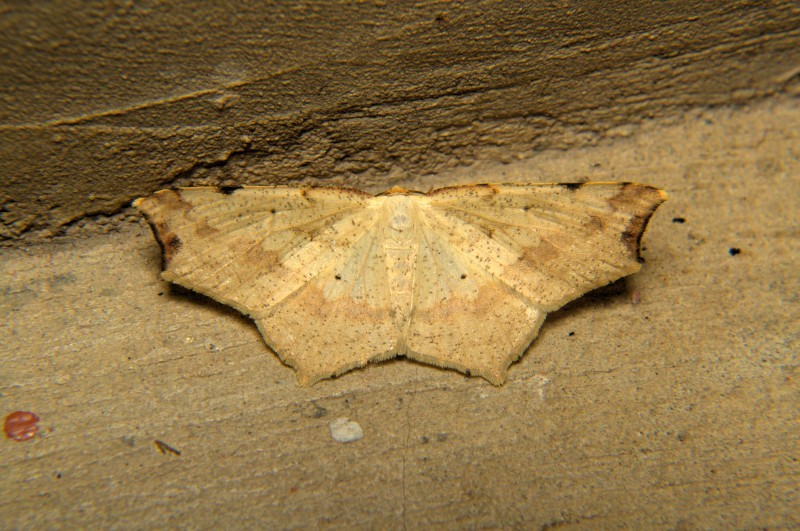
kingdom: Animalia
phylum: Arthropoda
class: Insecta
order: Lepidoptera
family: Geometridae
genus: Pareclipsis
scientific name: Pareclipsis gracilis
